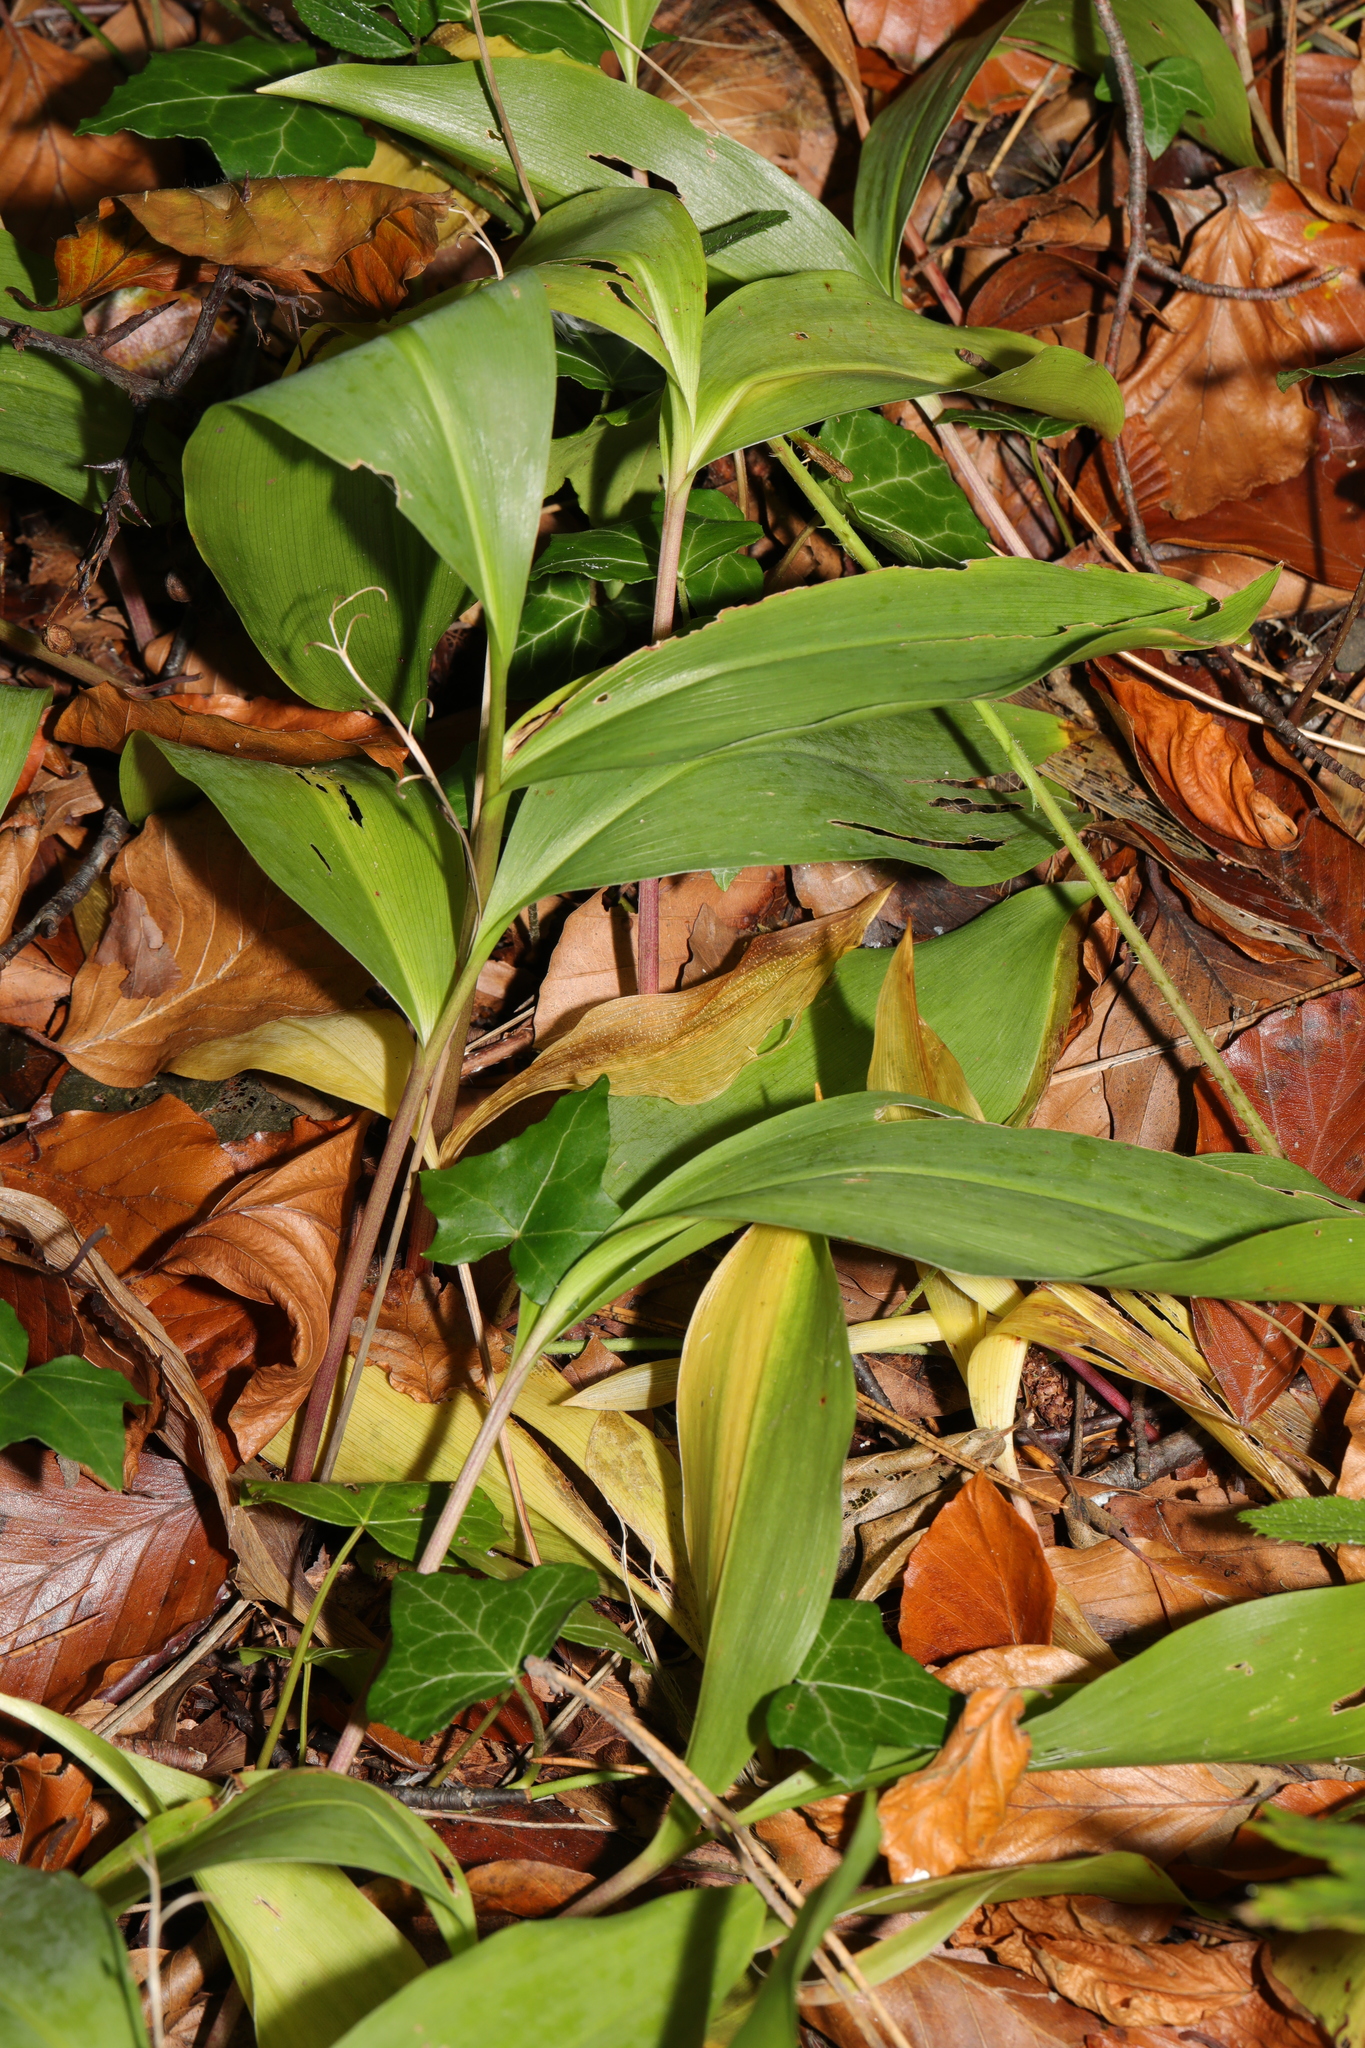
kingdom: Plantae
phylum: Tracheophyta
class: Liliopsida
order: Asparagales
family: Asparagaceae
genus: Convallaria
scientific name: Convallaria majalis
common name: Lily-of-the-valley
